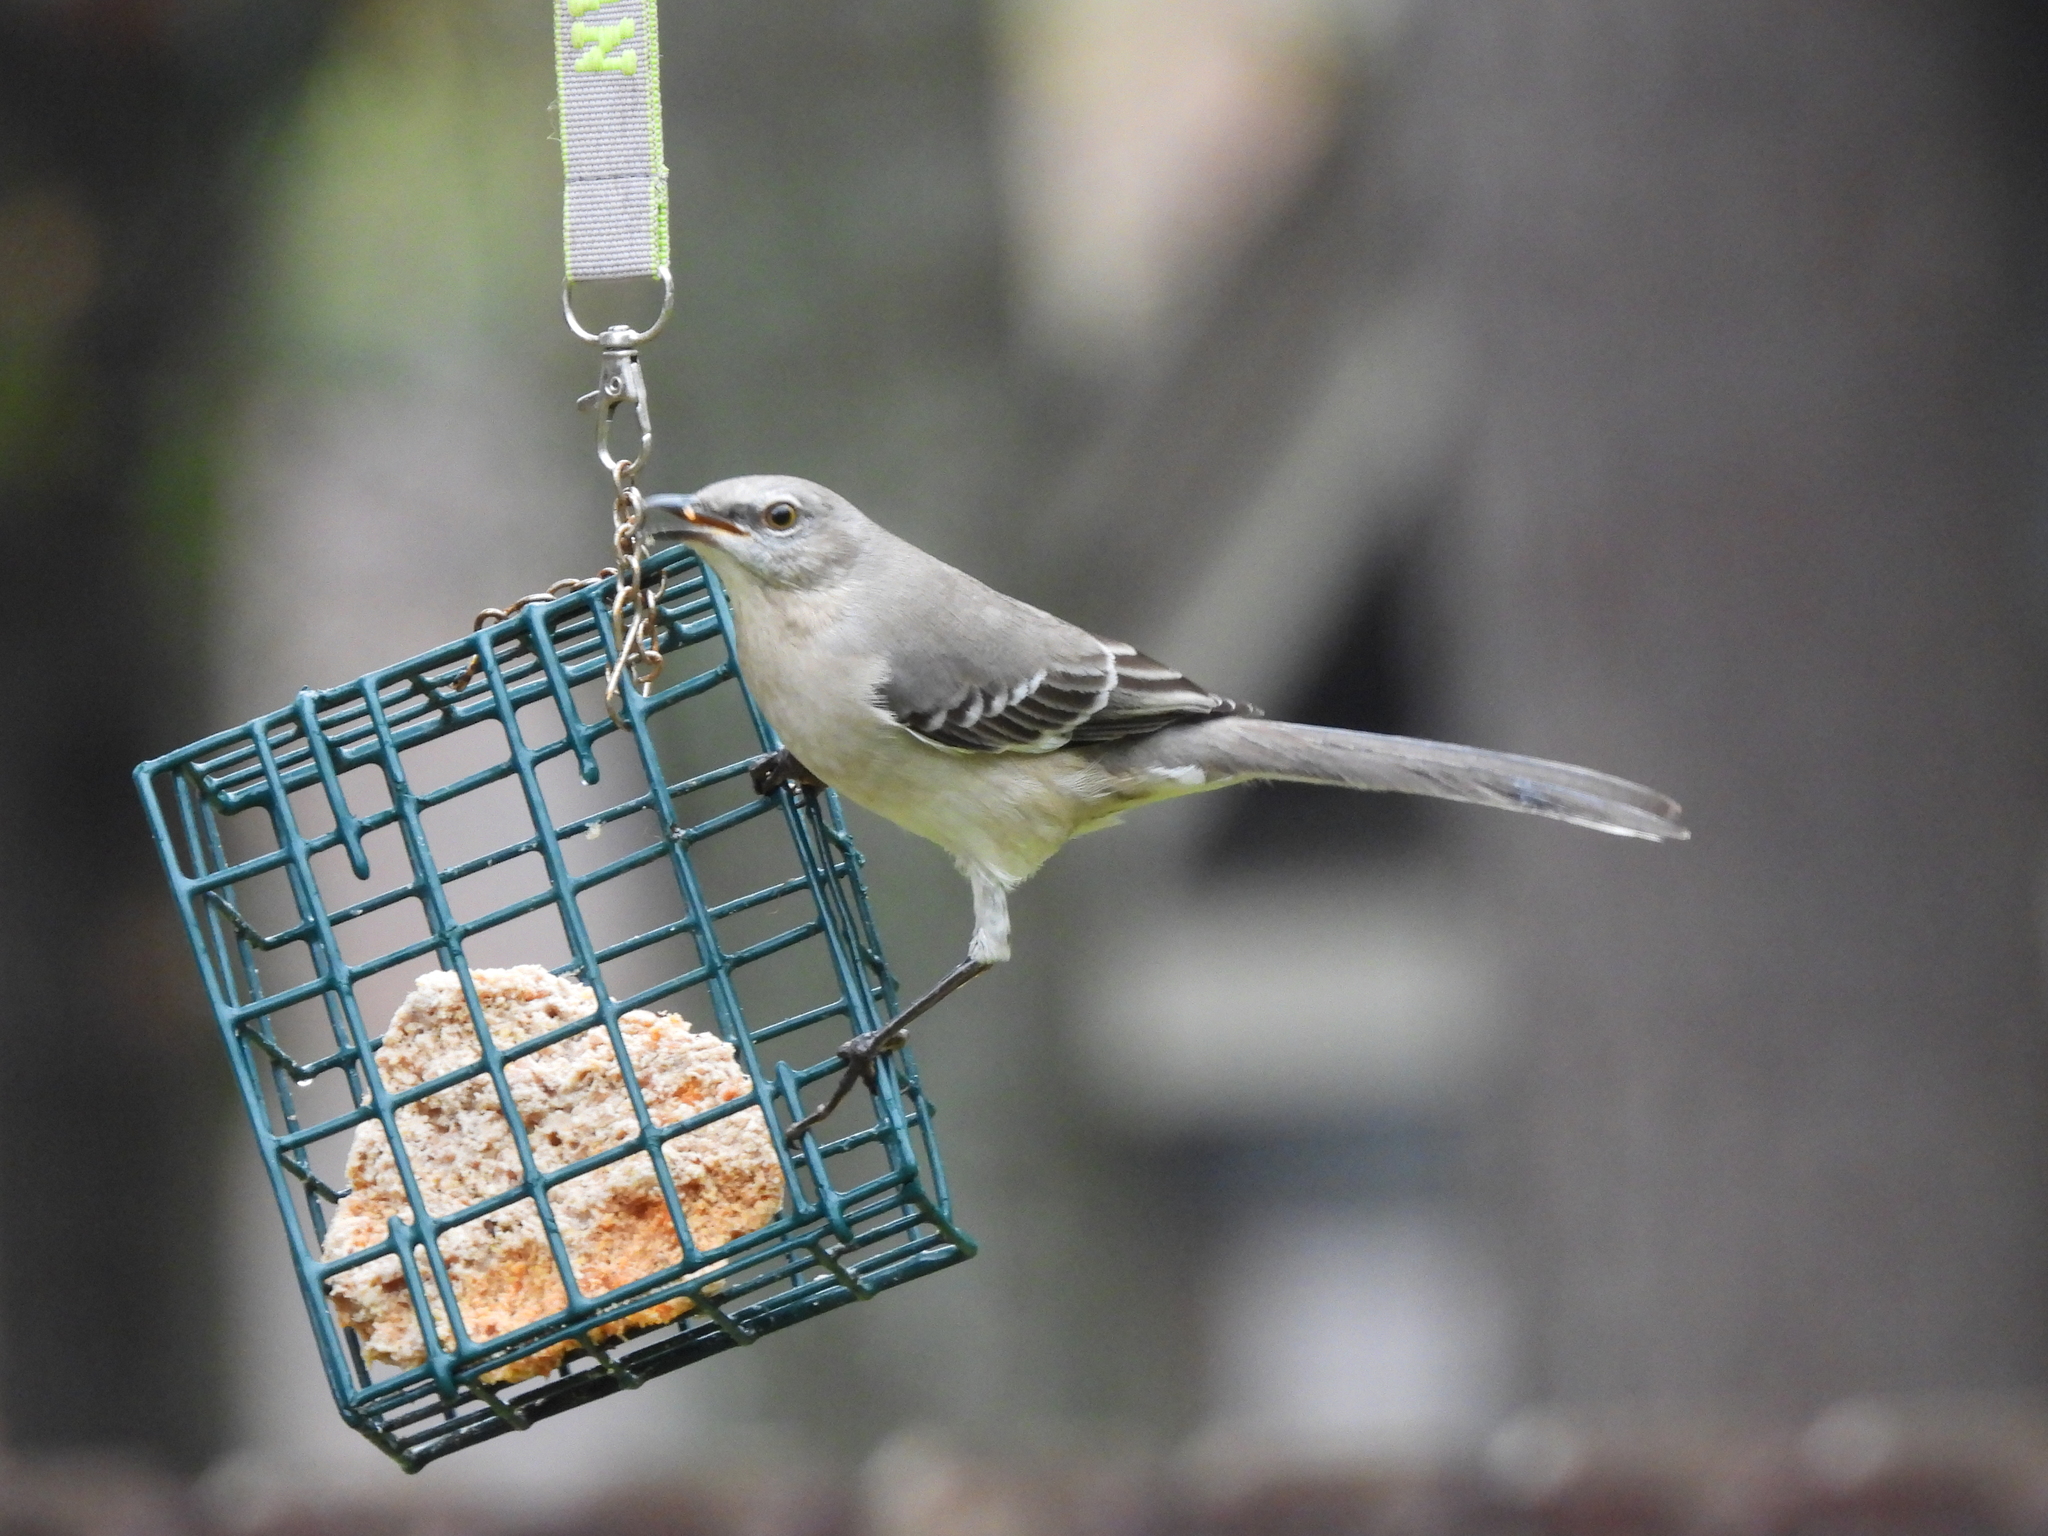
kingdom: Animalia
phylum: Chordata
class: Aves
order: Passeriformes
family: Mimidae
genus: Mimus
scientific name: Mimus polyglottos
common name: Northern mockingbird
